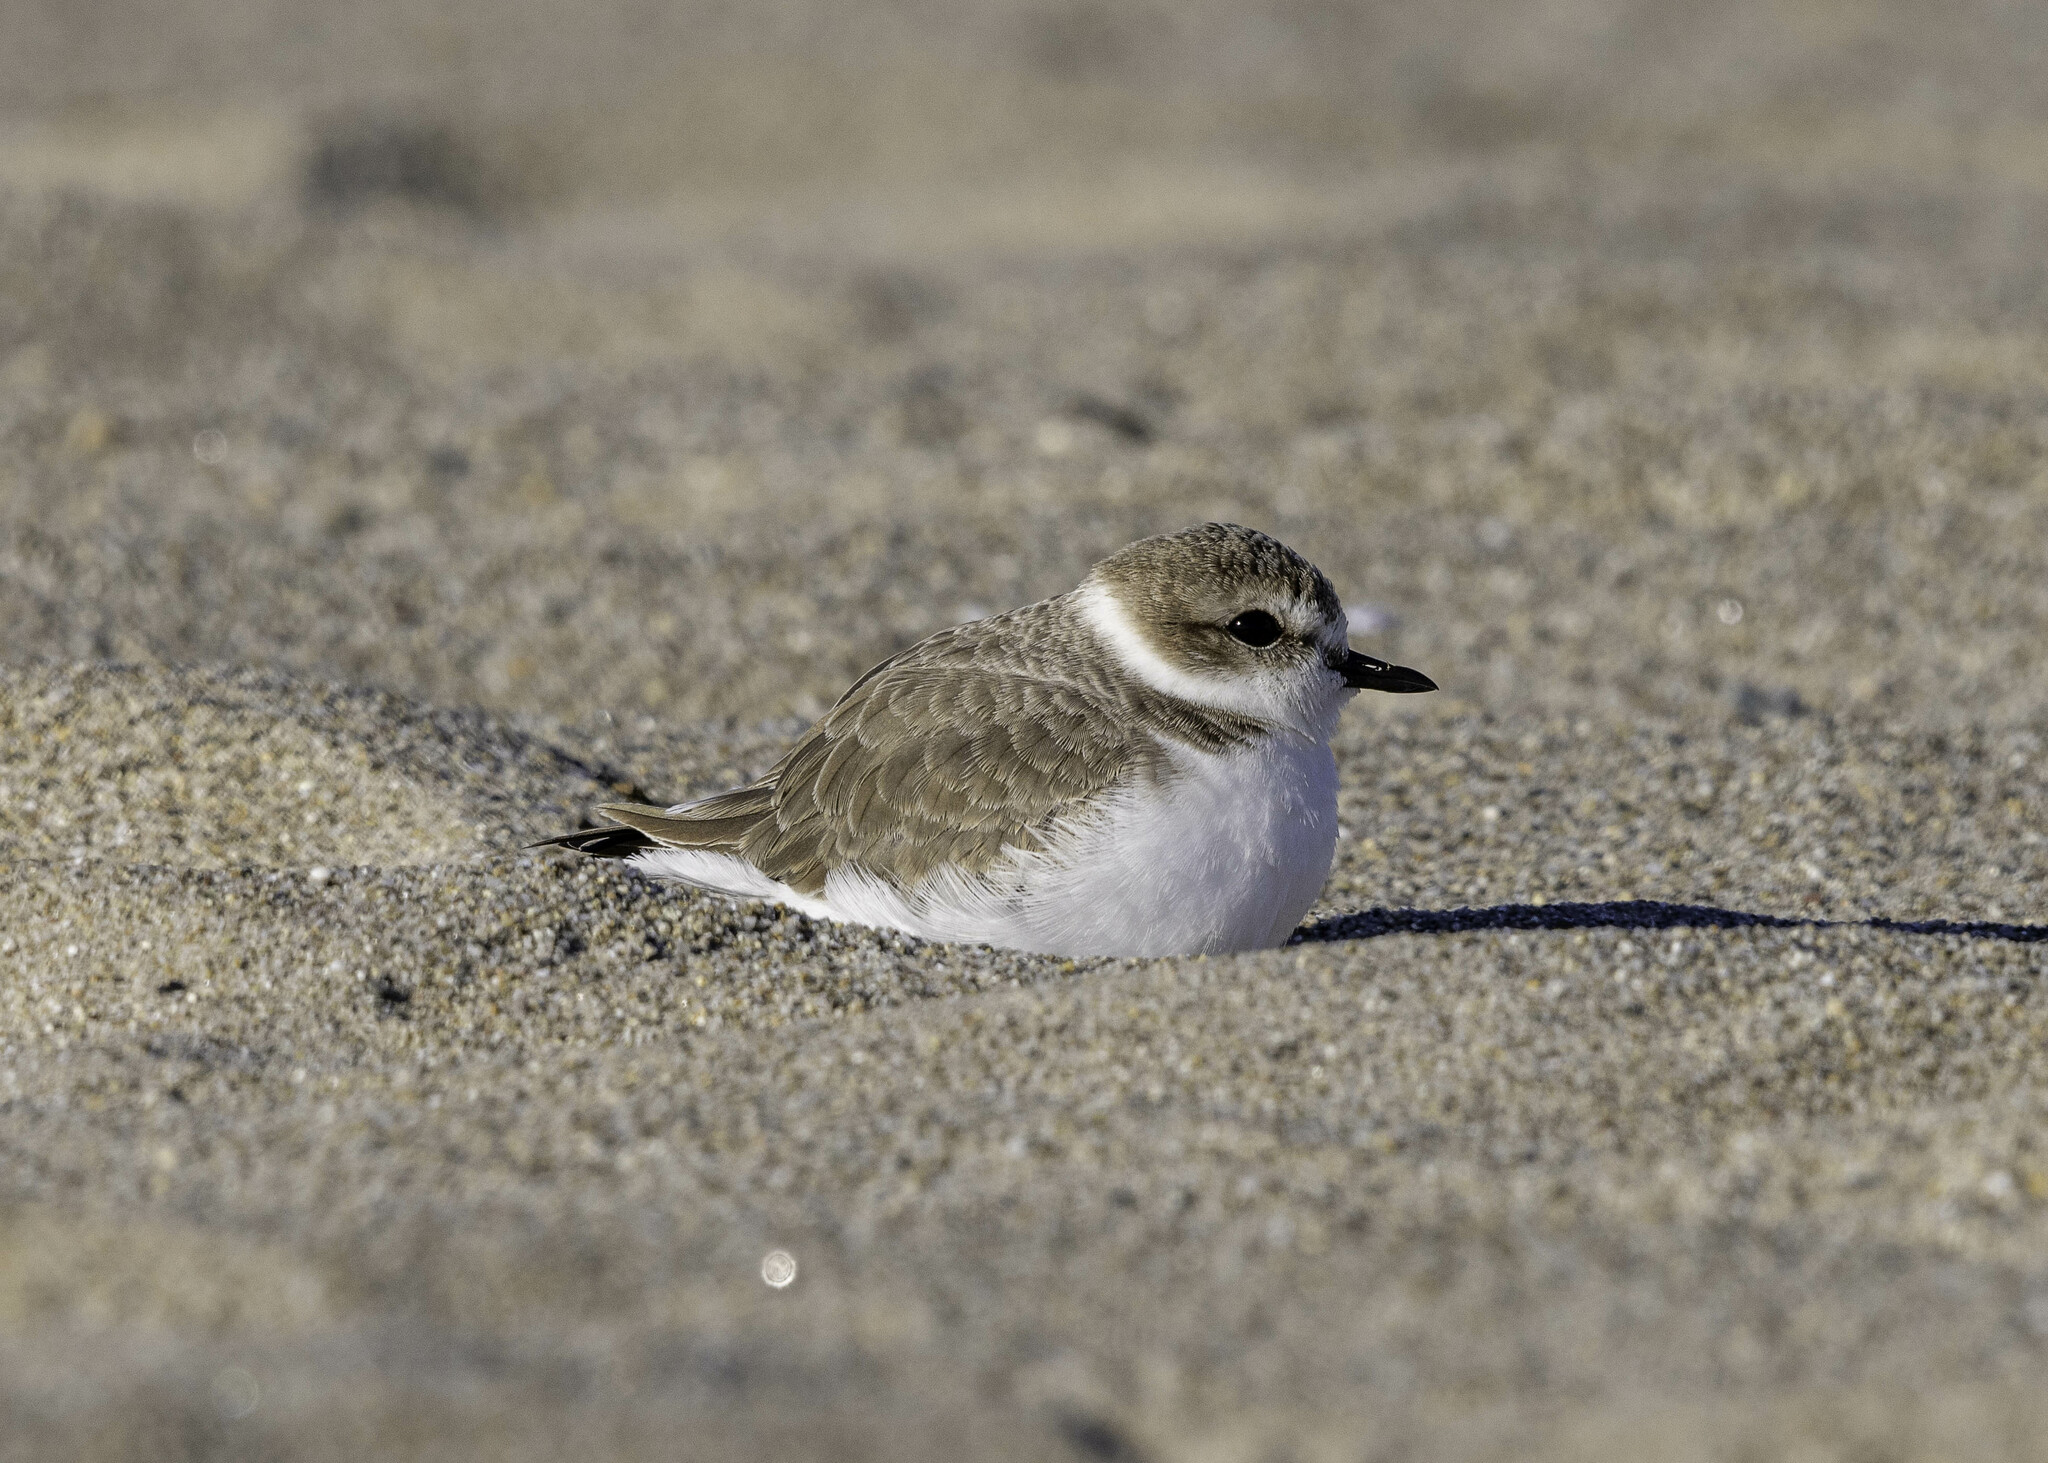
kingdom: Animalia
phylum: Chordata
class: Aves
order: Charadriiformes
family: Charadriidae
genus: Anarhynchus
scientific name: Anarhynchus
